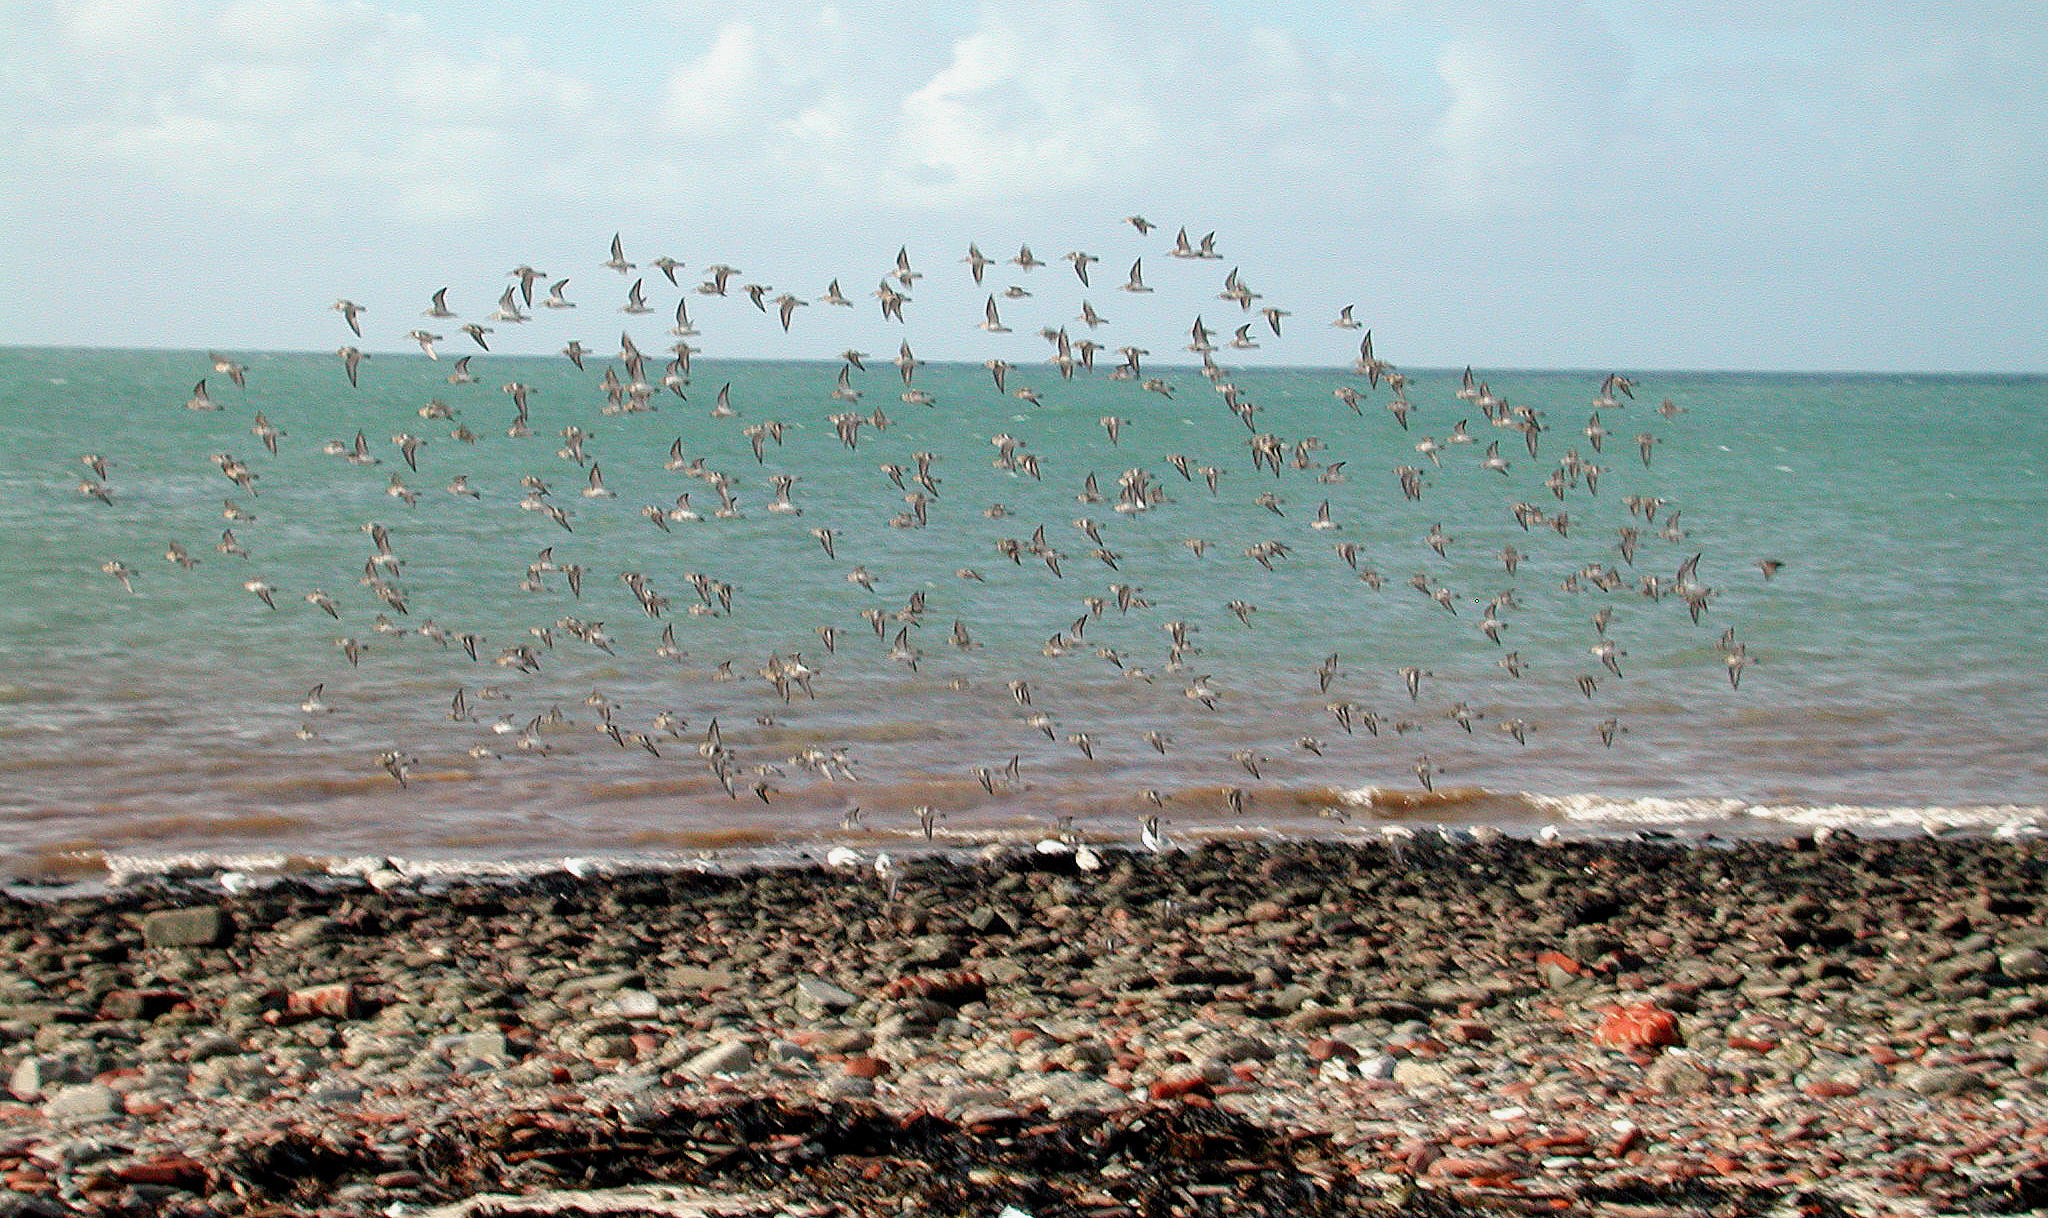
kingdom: Animalia
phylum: Chordata
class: Aves
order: Charadriiformes
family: Scolopacidae
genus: Calidris
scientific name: Calidris alpina
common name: Dunlin
